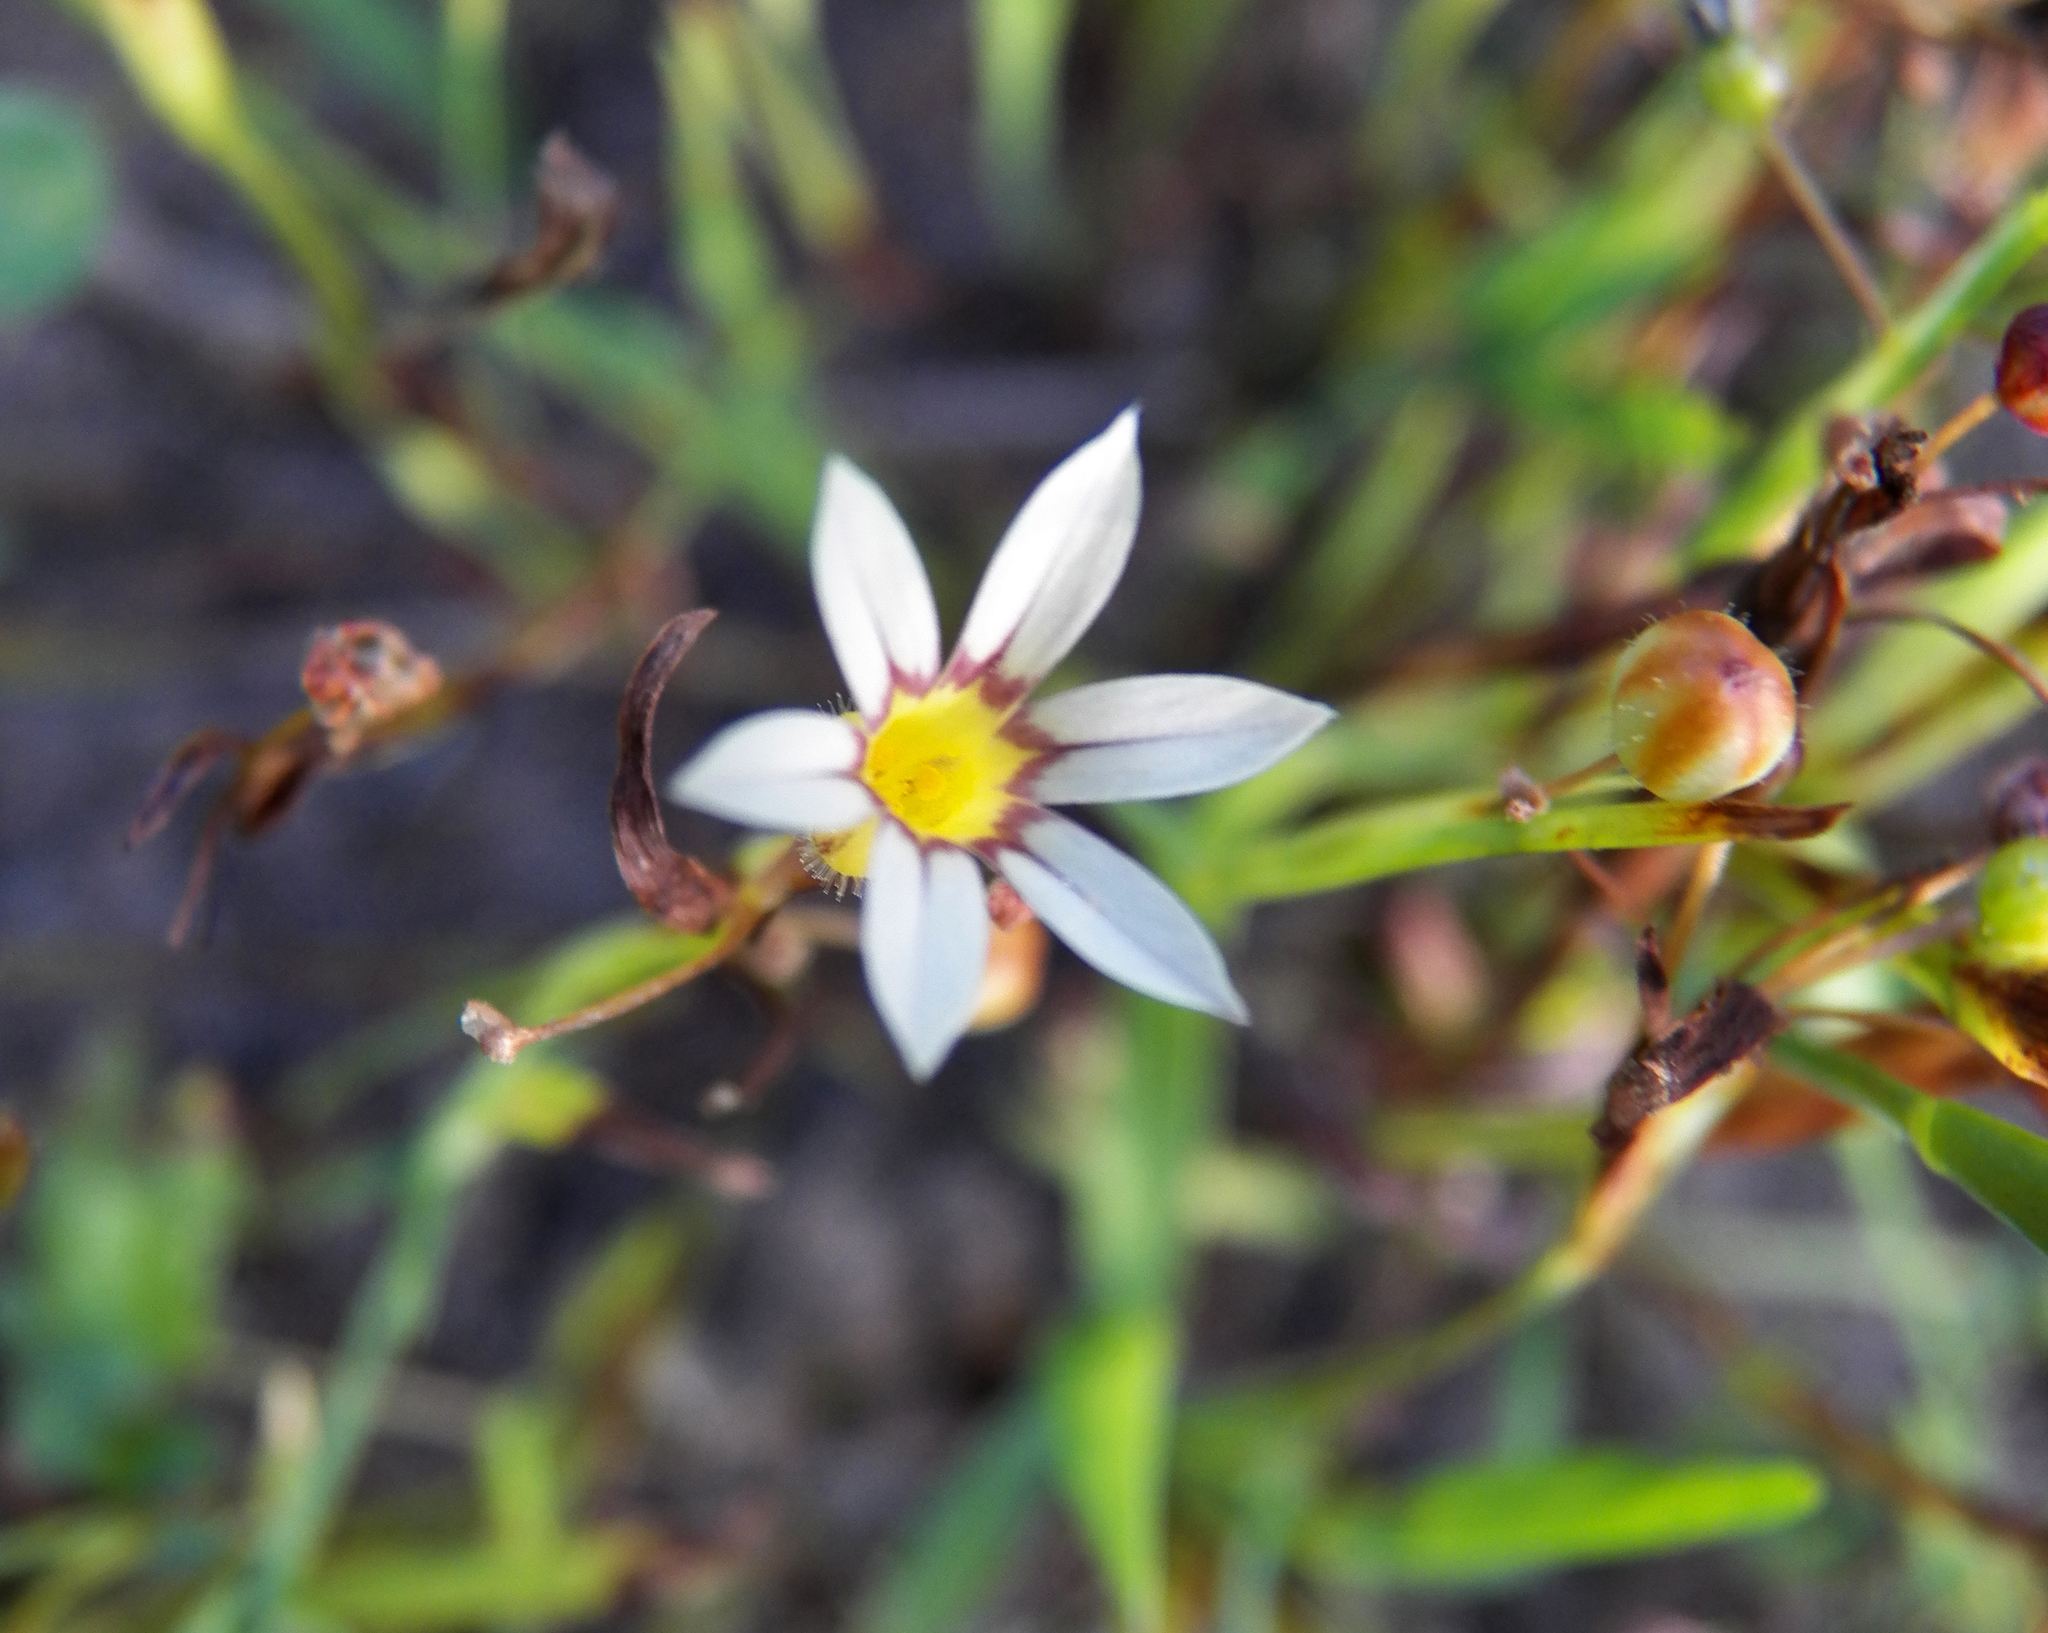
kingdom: Plantae
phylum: Tracheophyta
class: Liliopsida
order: Asparagales
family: Iridaceae
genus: Sisyrinchium
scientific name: Sisyrinchium micranthum
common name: Bermuda pigroot
